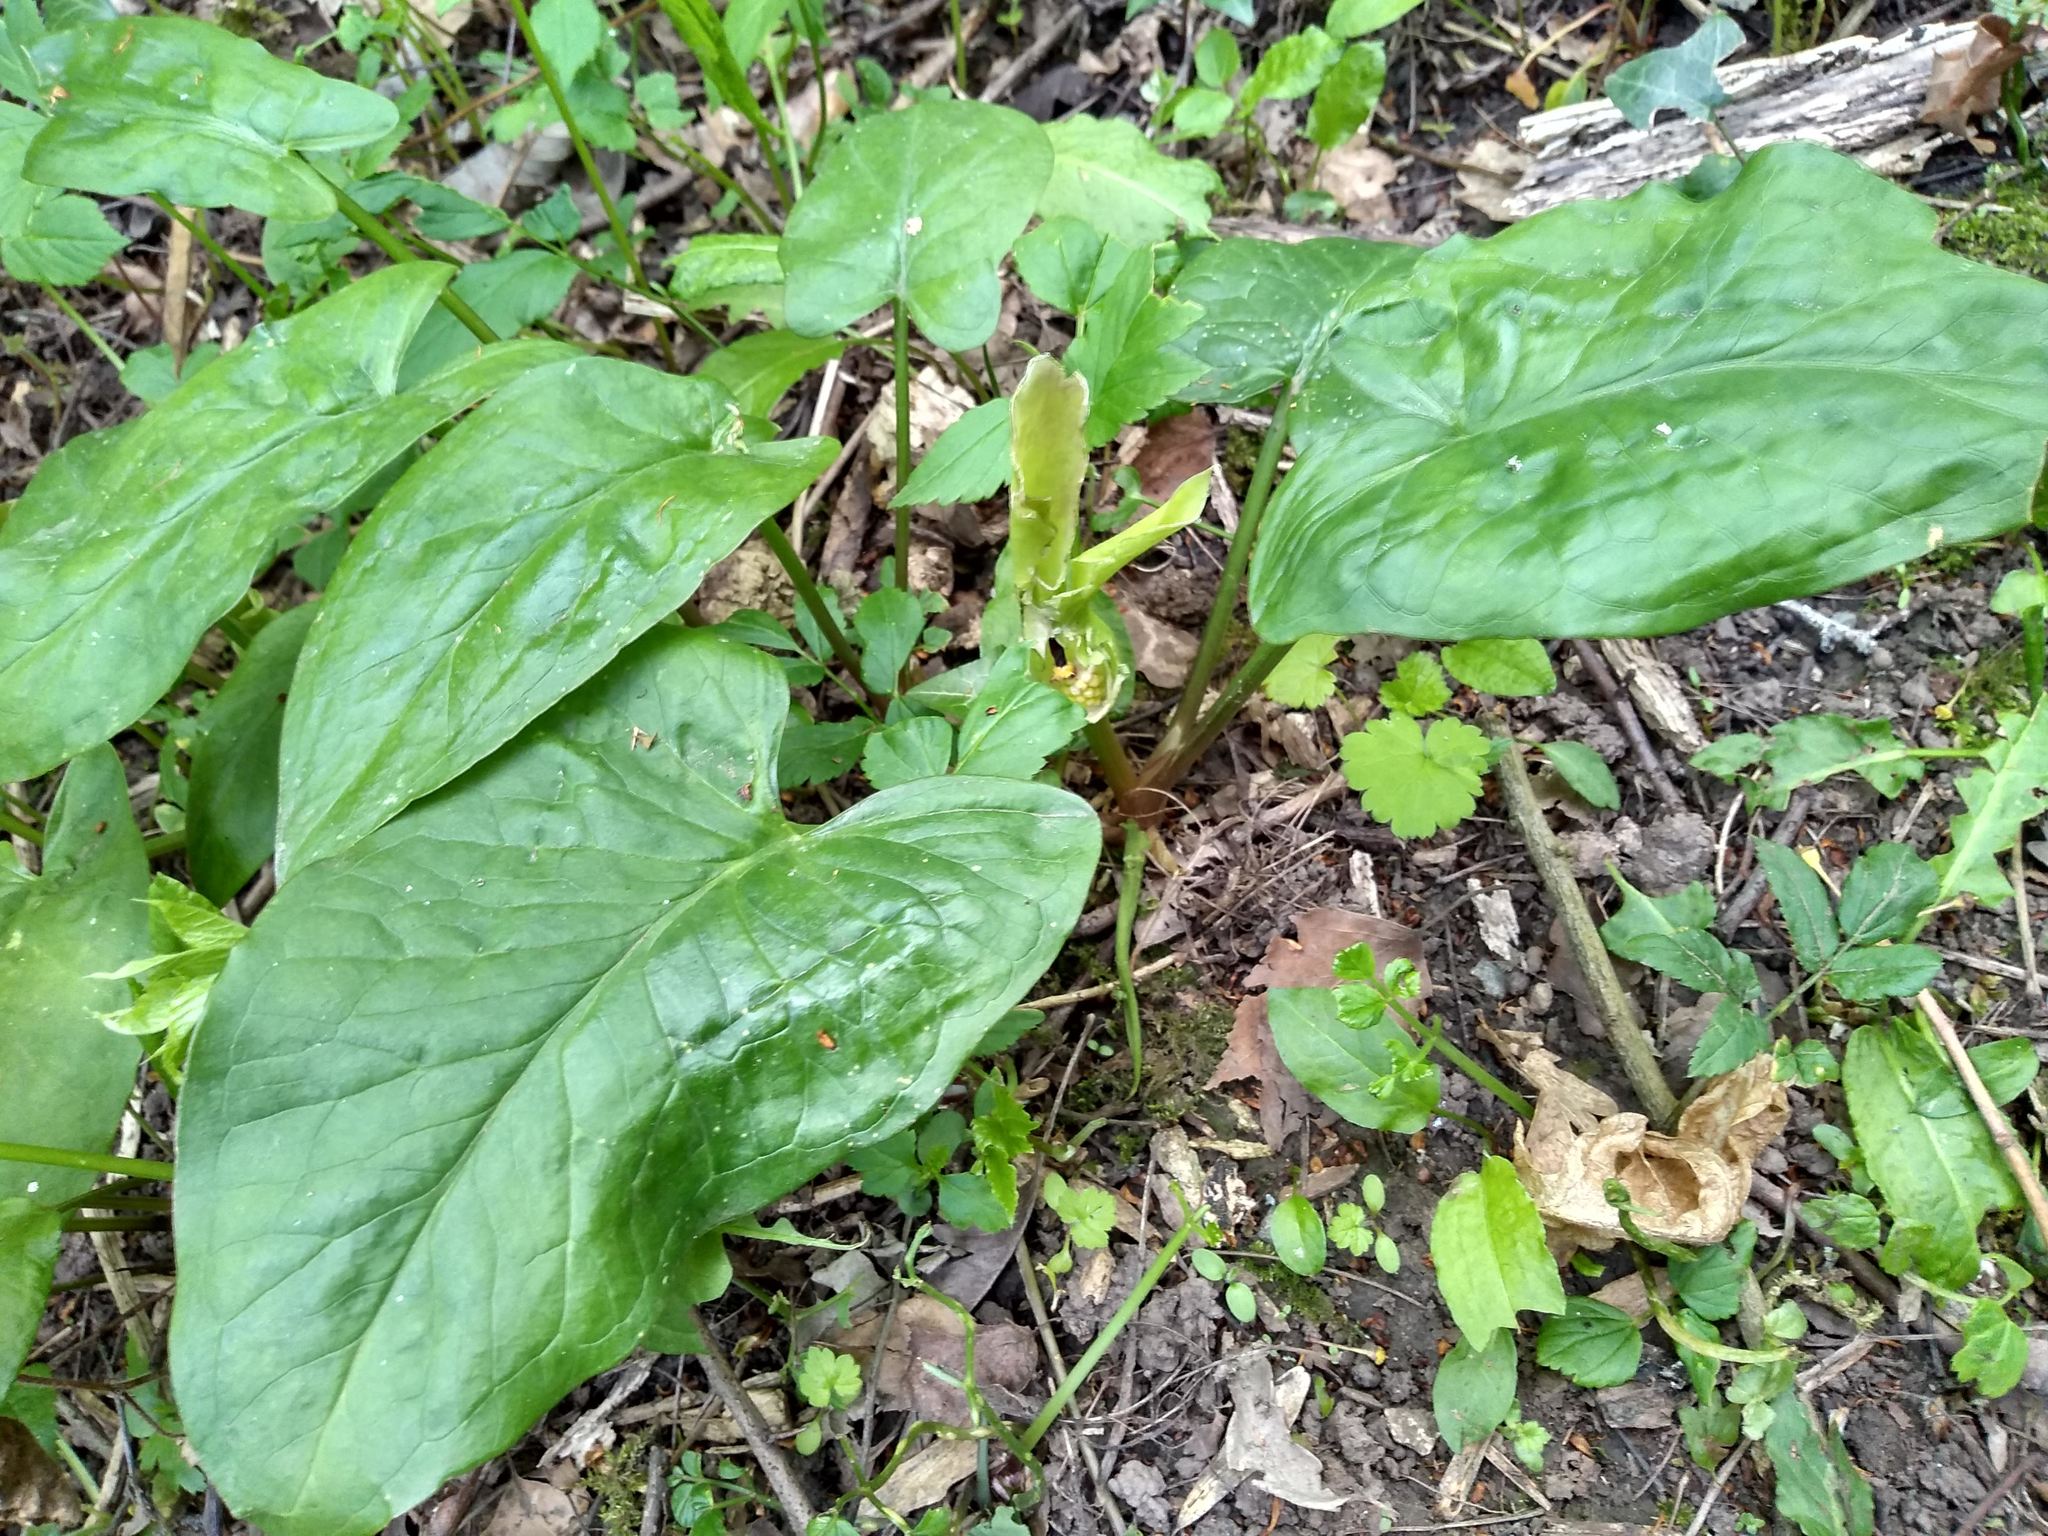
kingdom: Plantae
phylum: Tracheophyta
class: Liliopsida
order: Alismatales
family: Araceae
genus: Arum
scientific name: Arum maculatum
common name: Lords-and-ladies
